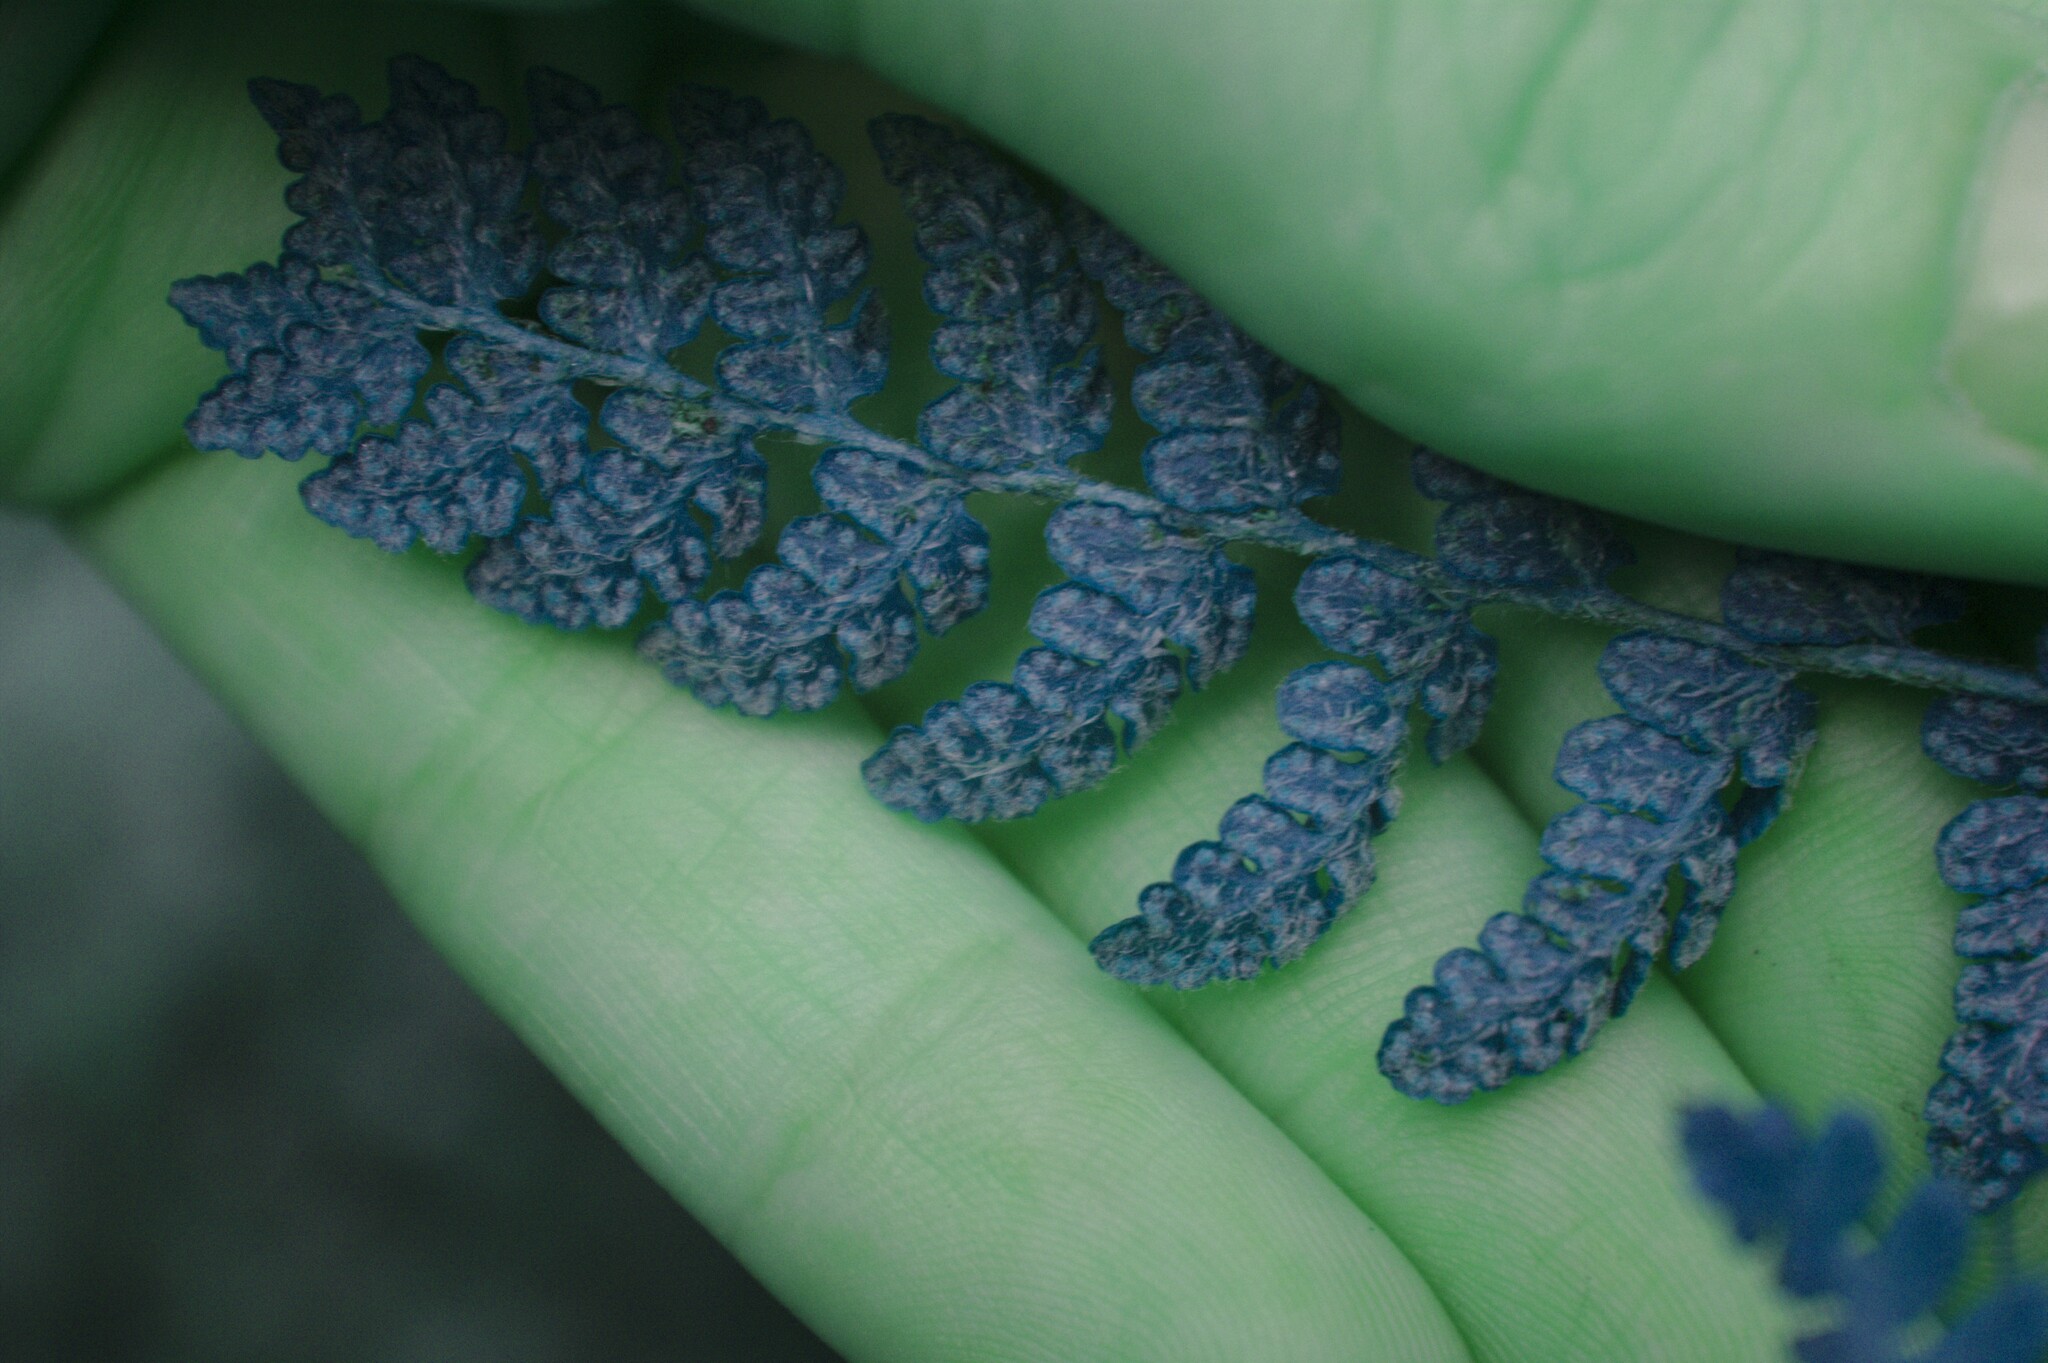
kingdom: Plantae
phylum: Tracheophyta
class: Polypodiopsida
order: Polypodiales
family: Woodsiaceae
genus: Woodsia
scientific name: Woodsia ilvensis
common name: Fragrant woodsia
